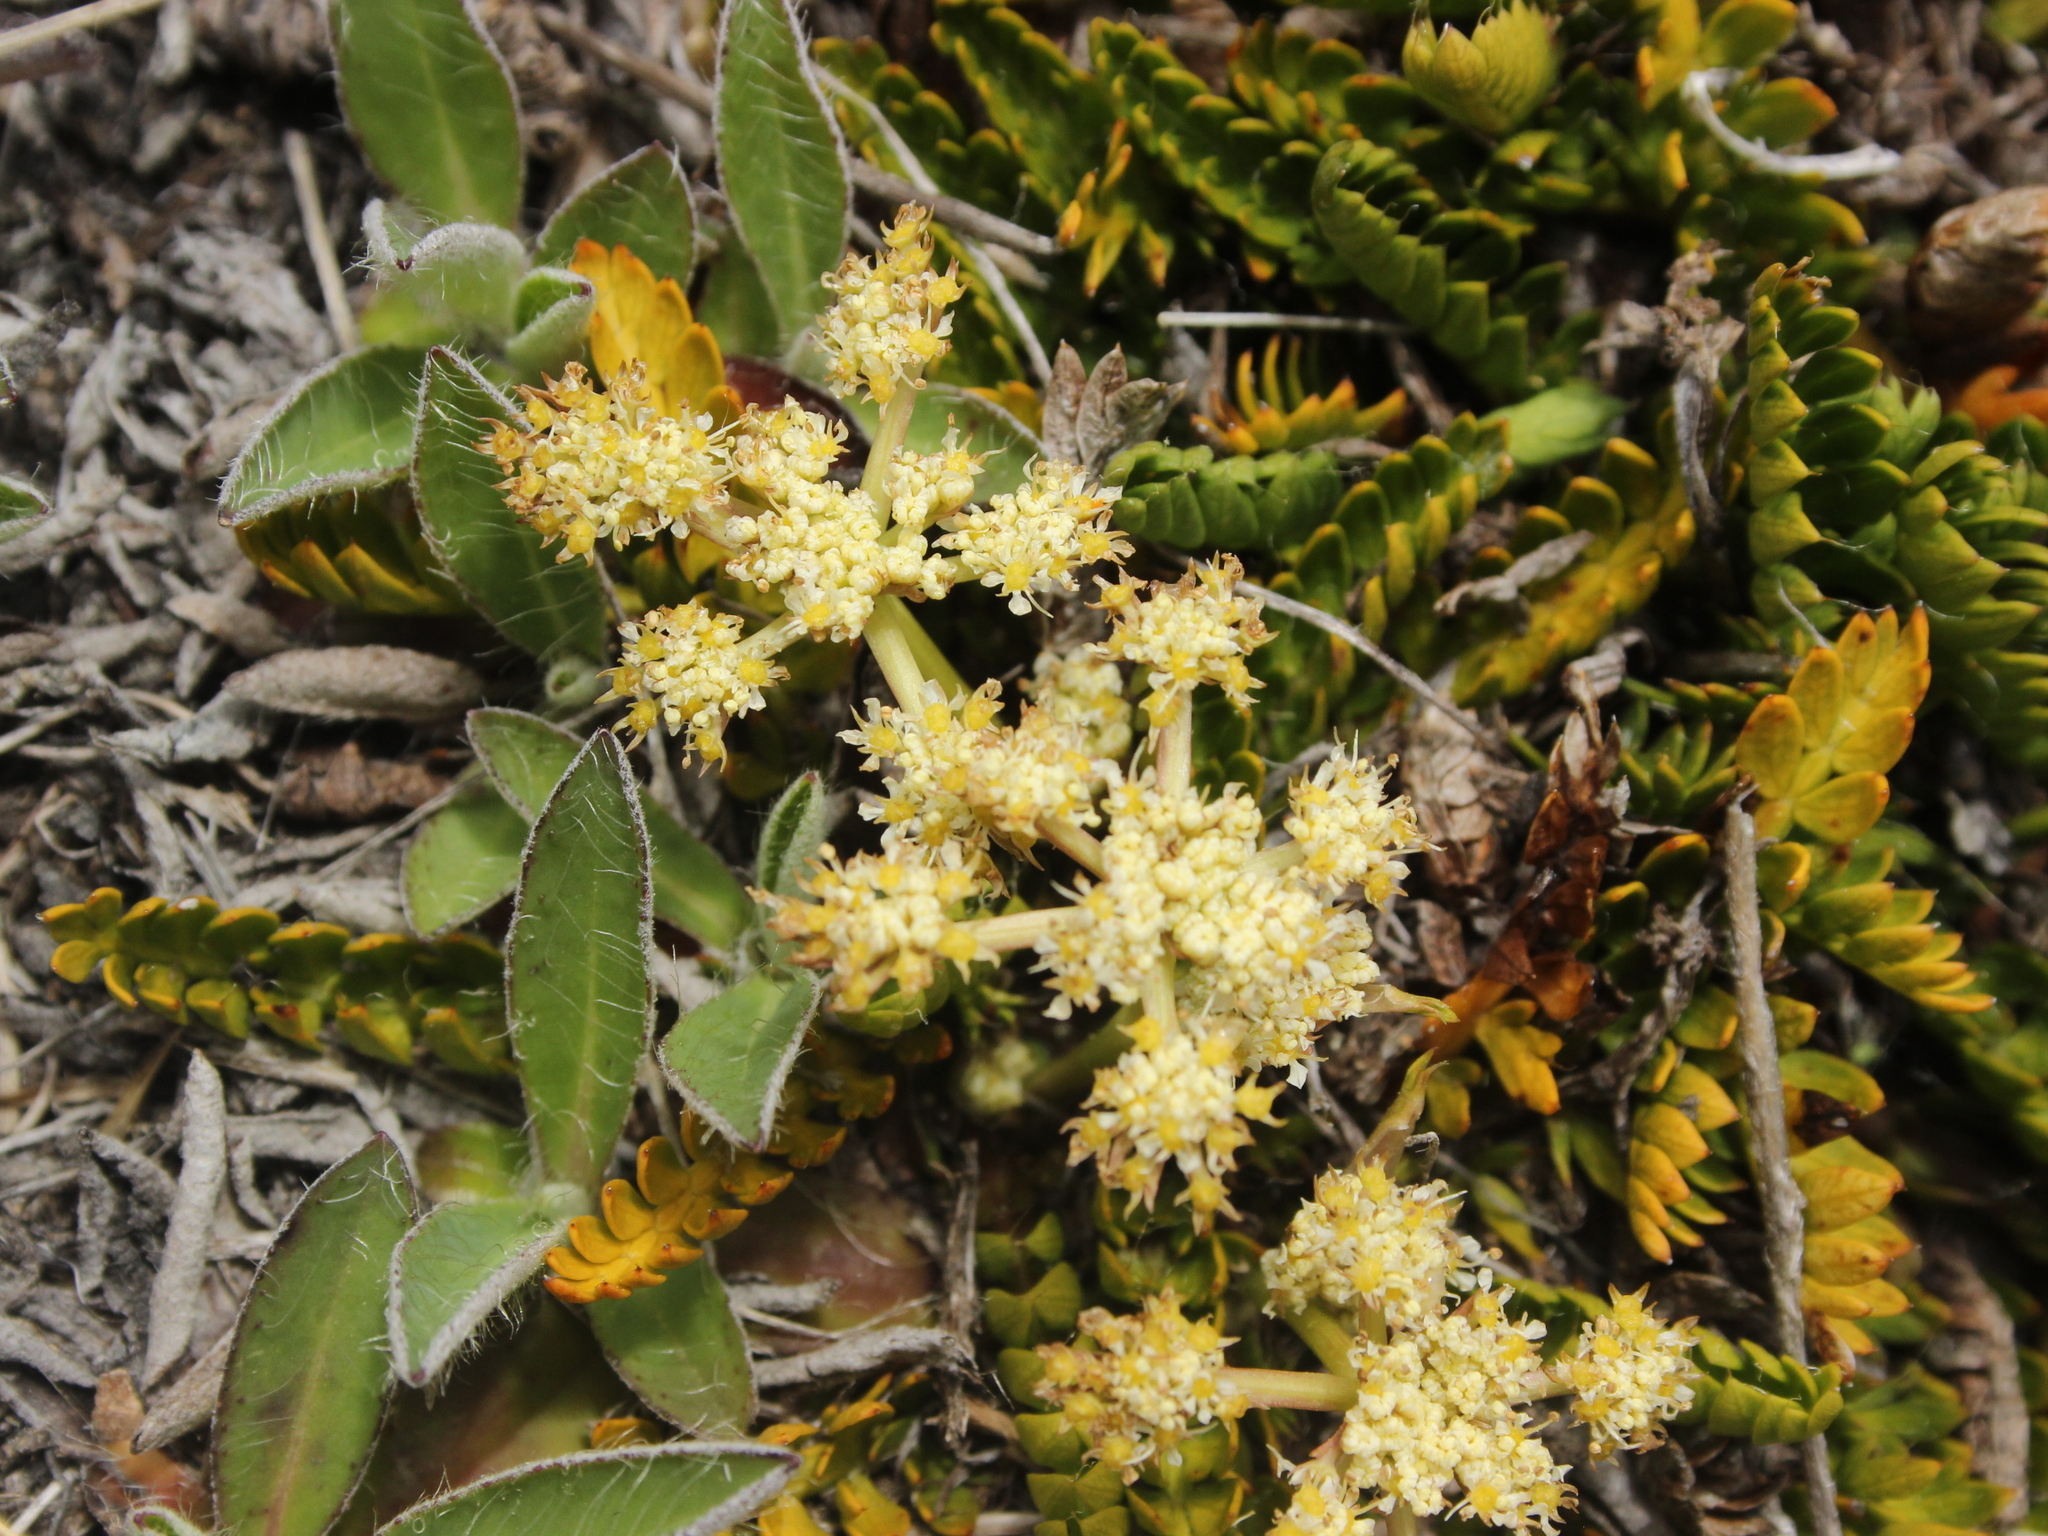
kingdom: Plantae
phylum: Tracheophyta
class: Magnoliopsida
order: Apiales
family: Apiaceae
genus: Anisotome
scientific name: Anisotome aromatica
